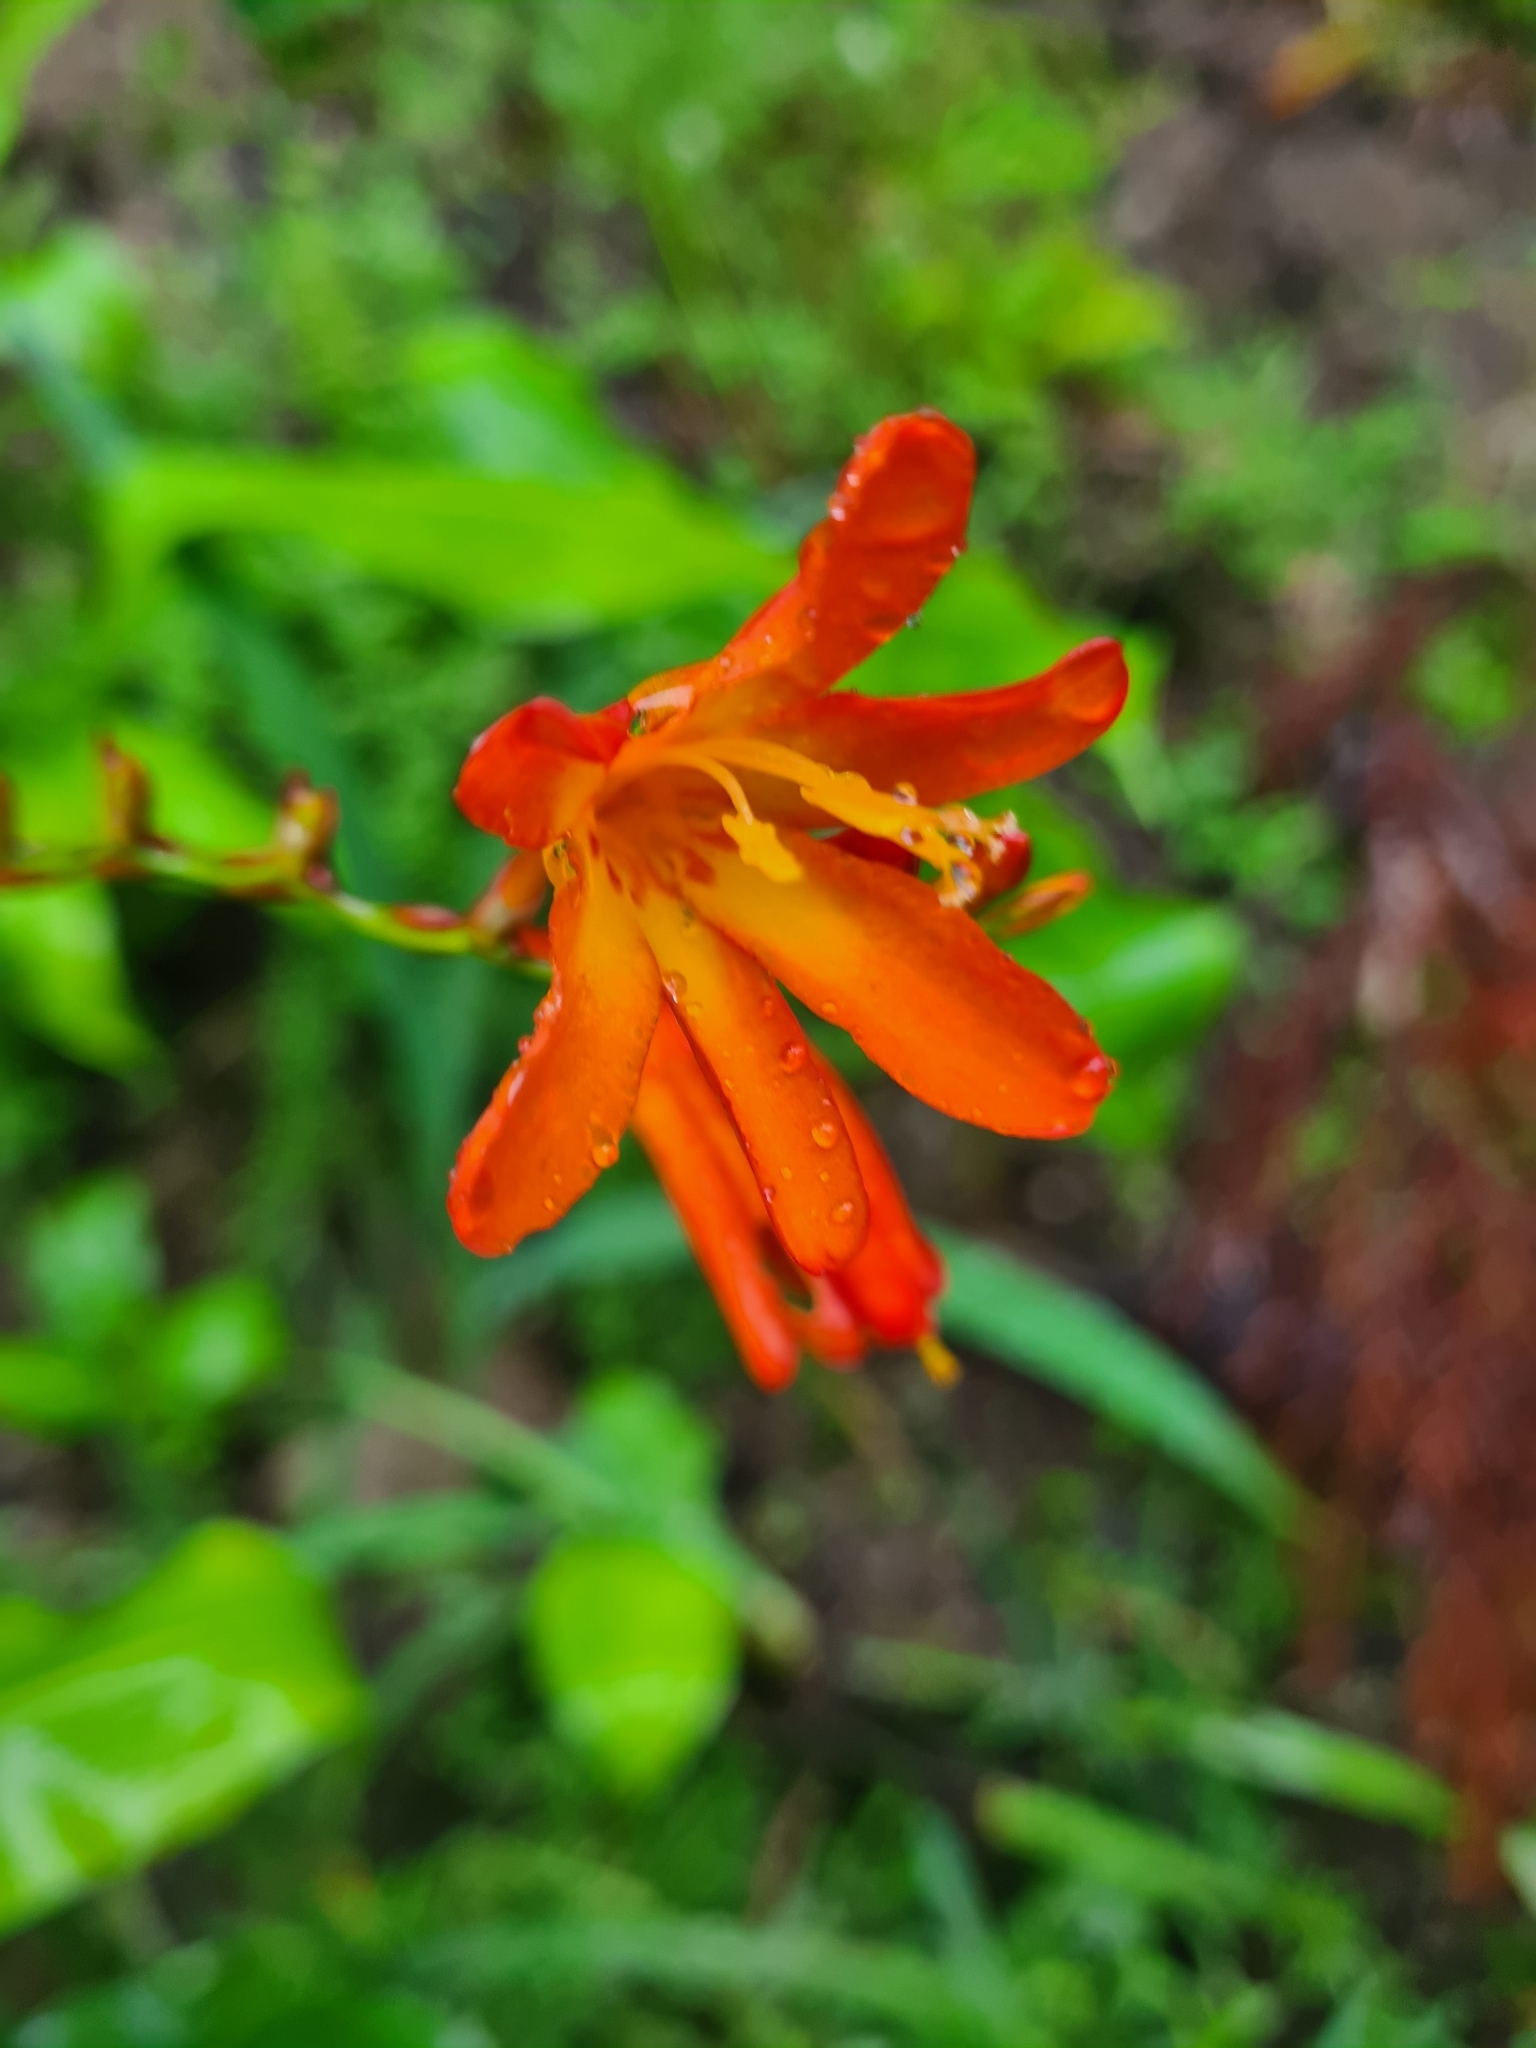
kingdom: Plantae
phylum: Tracheophyta
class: Liliopsida
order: Asparagales
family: Iridaceae
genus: Crocosmia
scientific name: Crocosmia crocosmiiflora
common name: Montbretia
